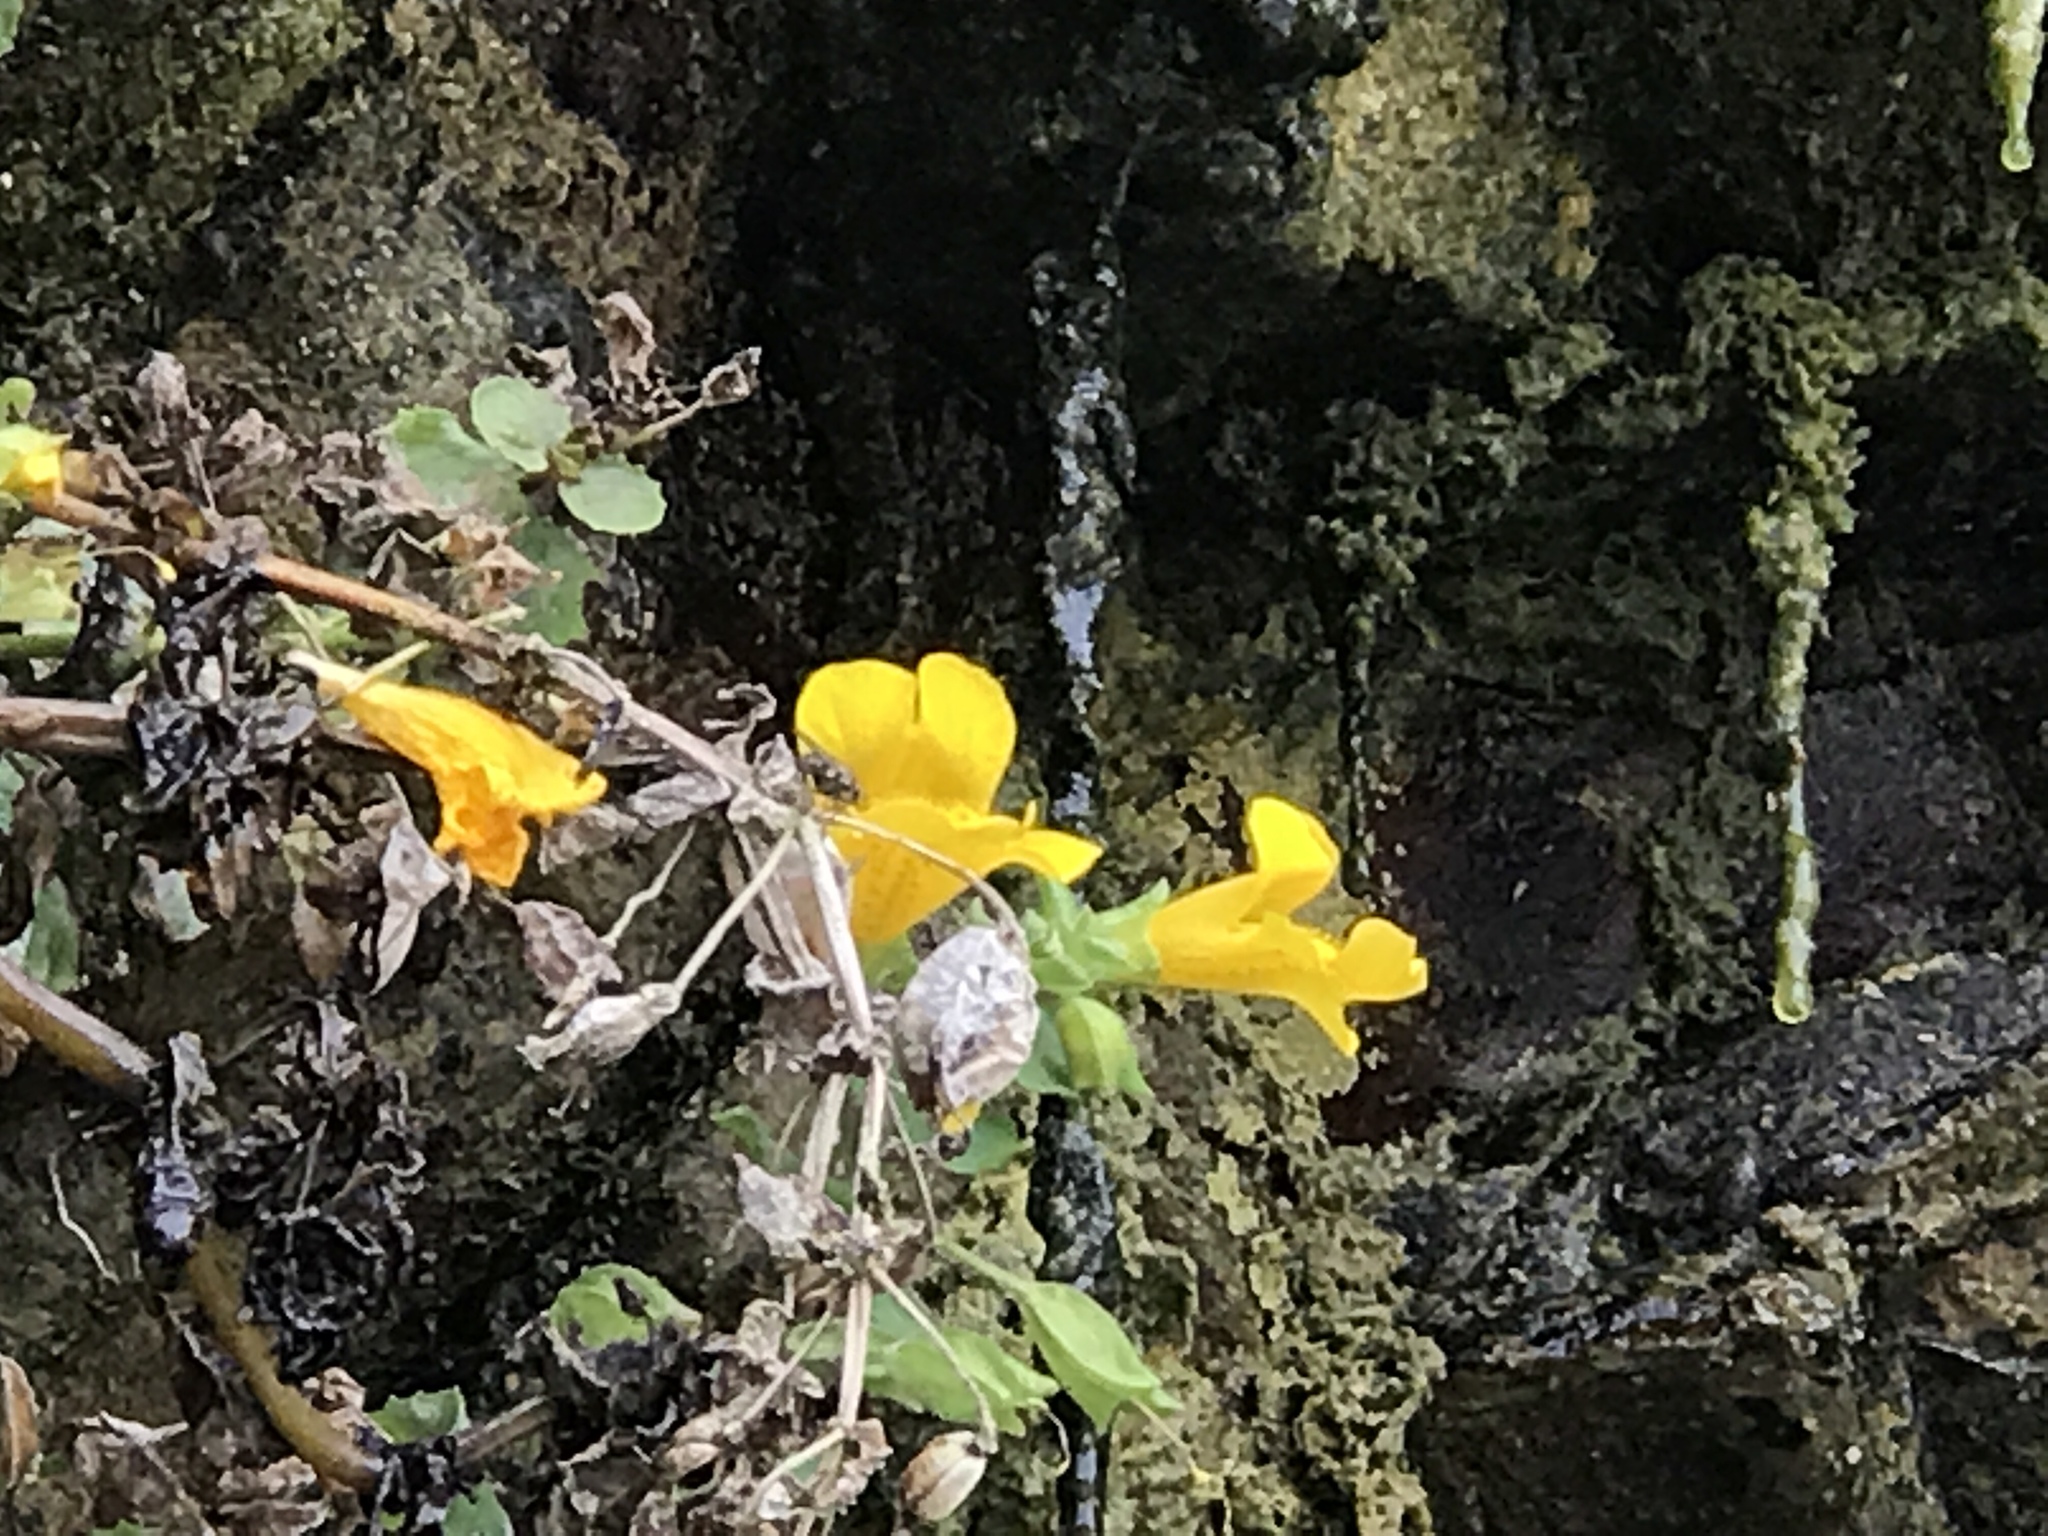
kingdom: Plantae
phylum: Tracheophyta
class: Magnoliopsida
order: Lamiales
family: Phrymaceae
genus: Erythranthe
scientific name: Erythranthe grandis
